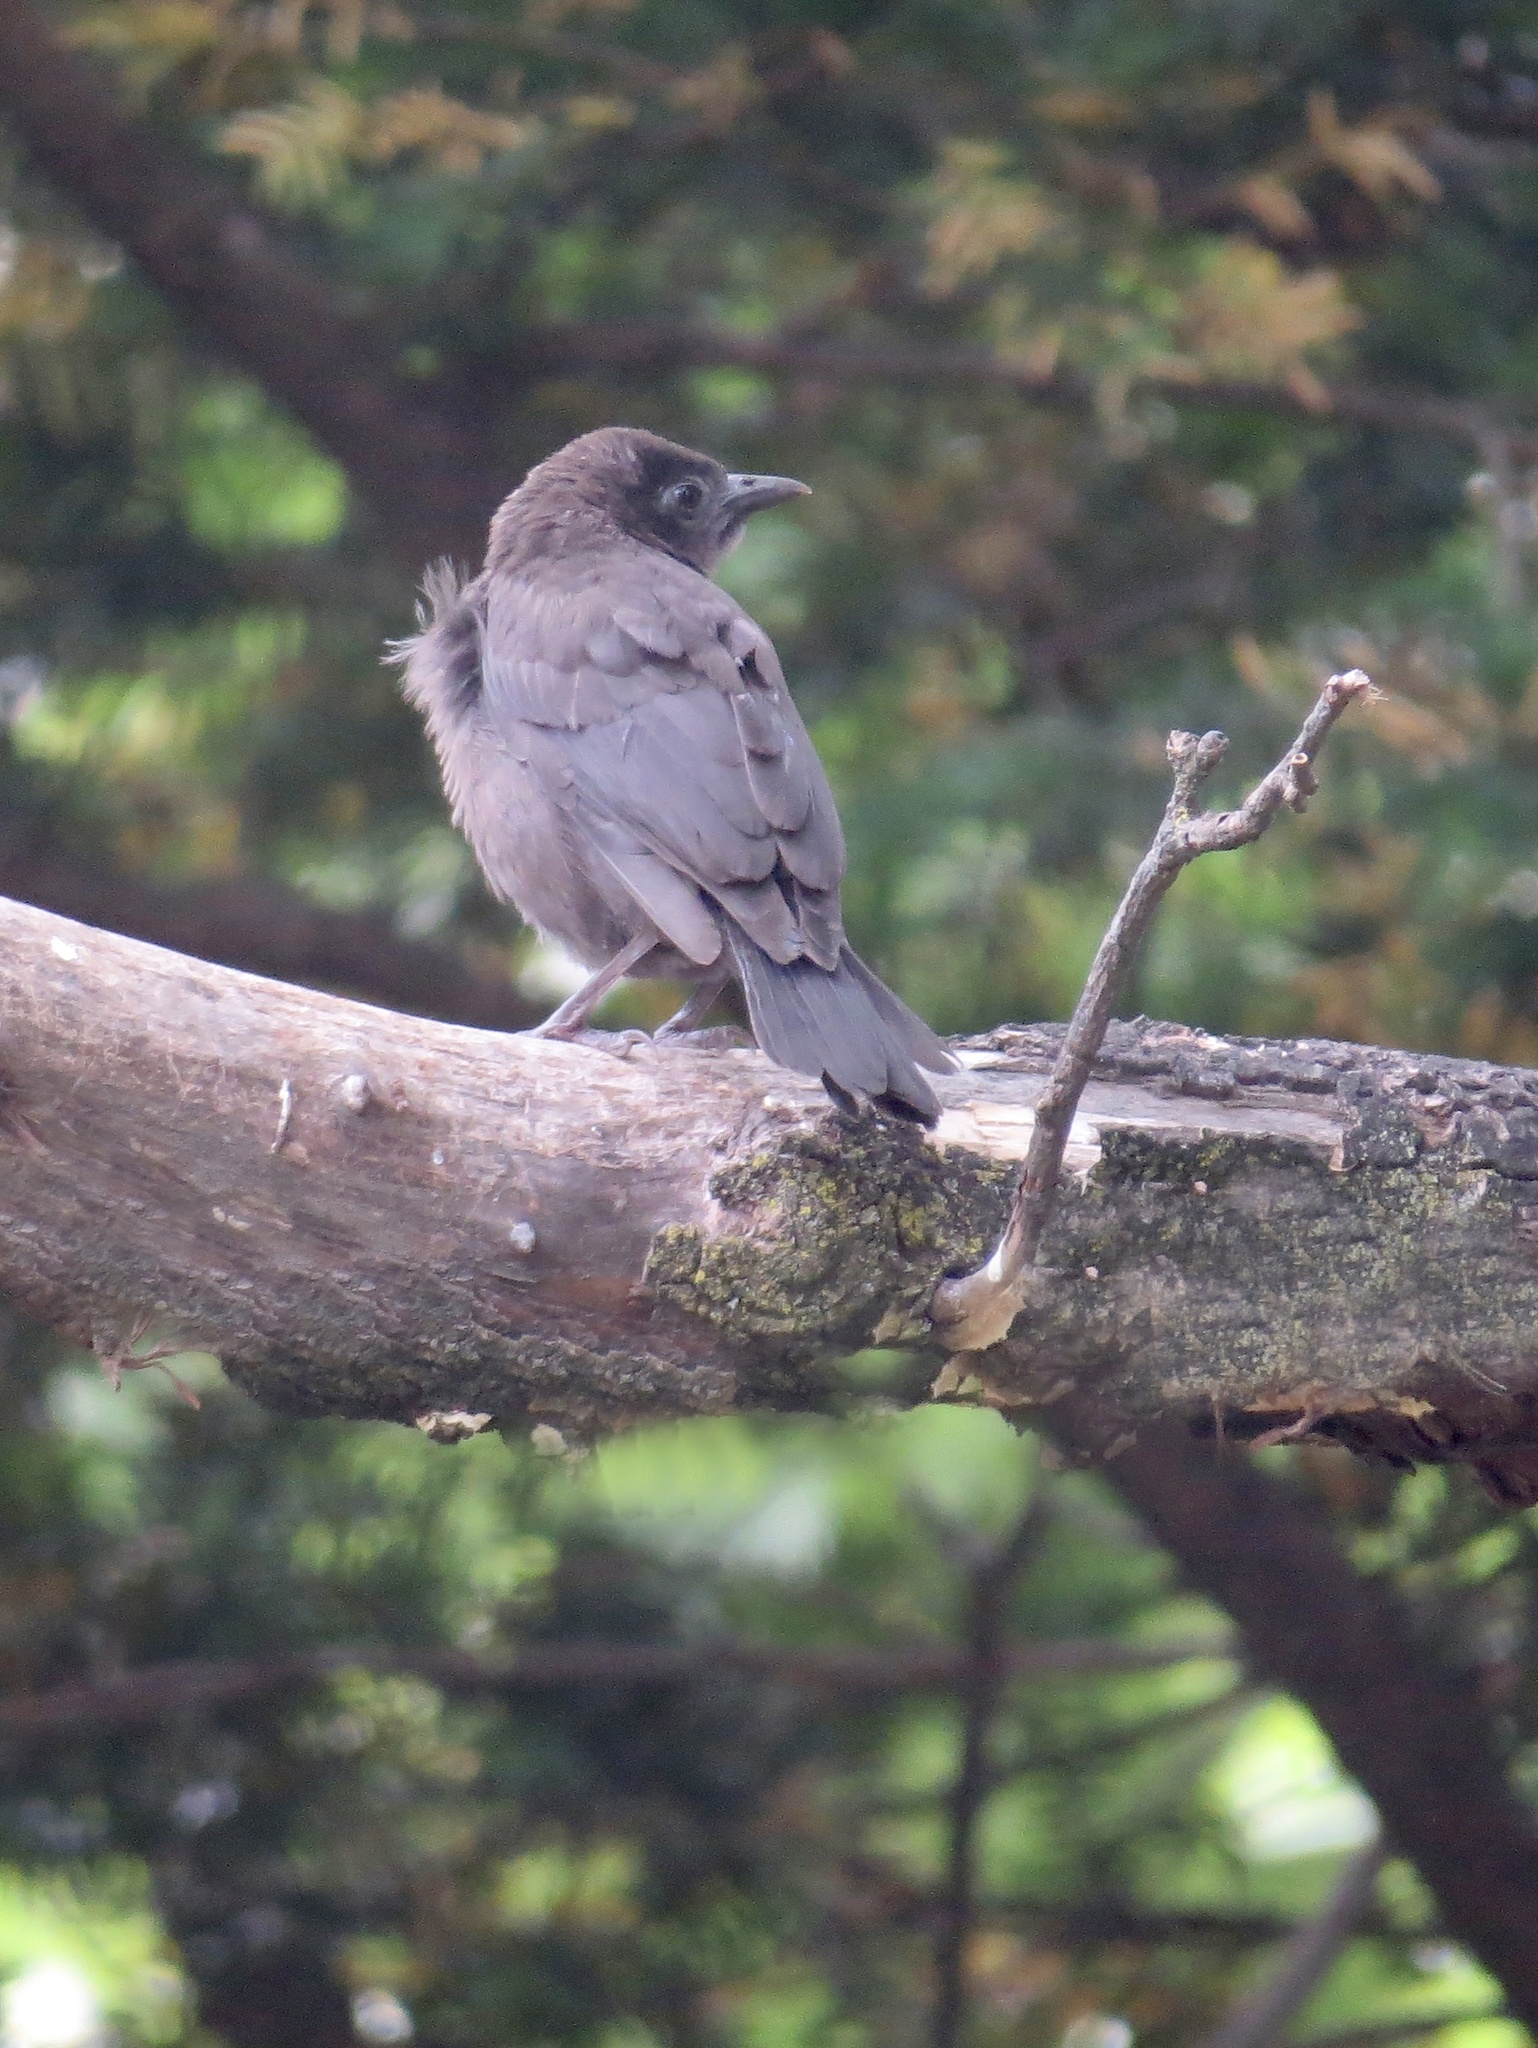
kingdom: Animalia
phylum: Chordata
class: Aves
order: Passeriformes
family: Icteridae
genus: Quiscalus
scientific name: Quiscalus quiscula
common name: Common grackle
